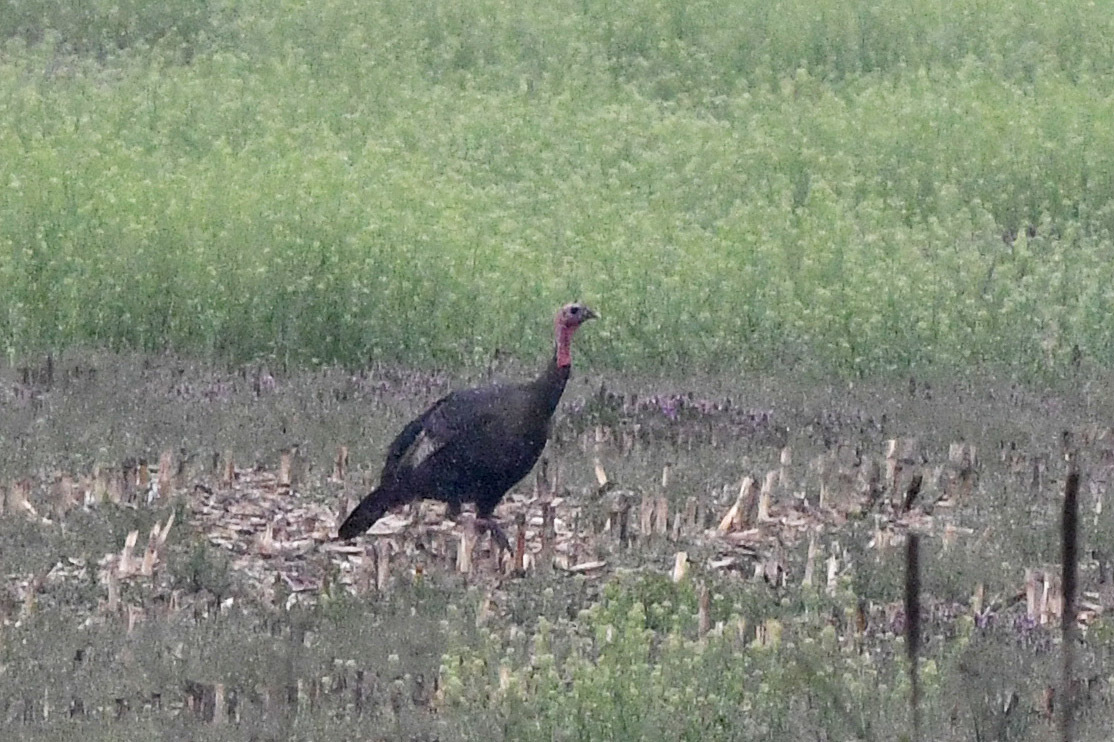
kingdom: Animalia
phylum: Chordata
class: Aves
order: Galliformes
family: Phasianidae
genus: Meleagris
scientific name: Meleagris gallopavo
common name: Wild turkey
